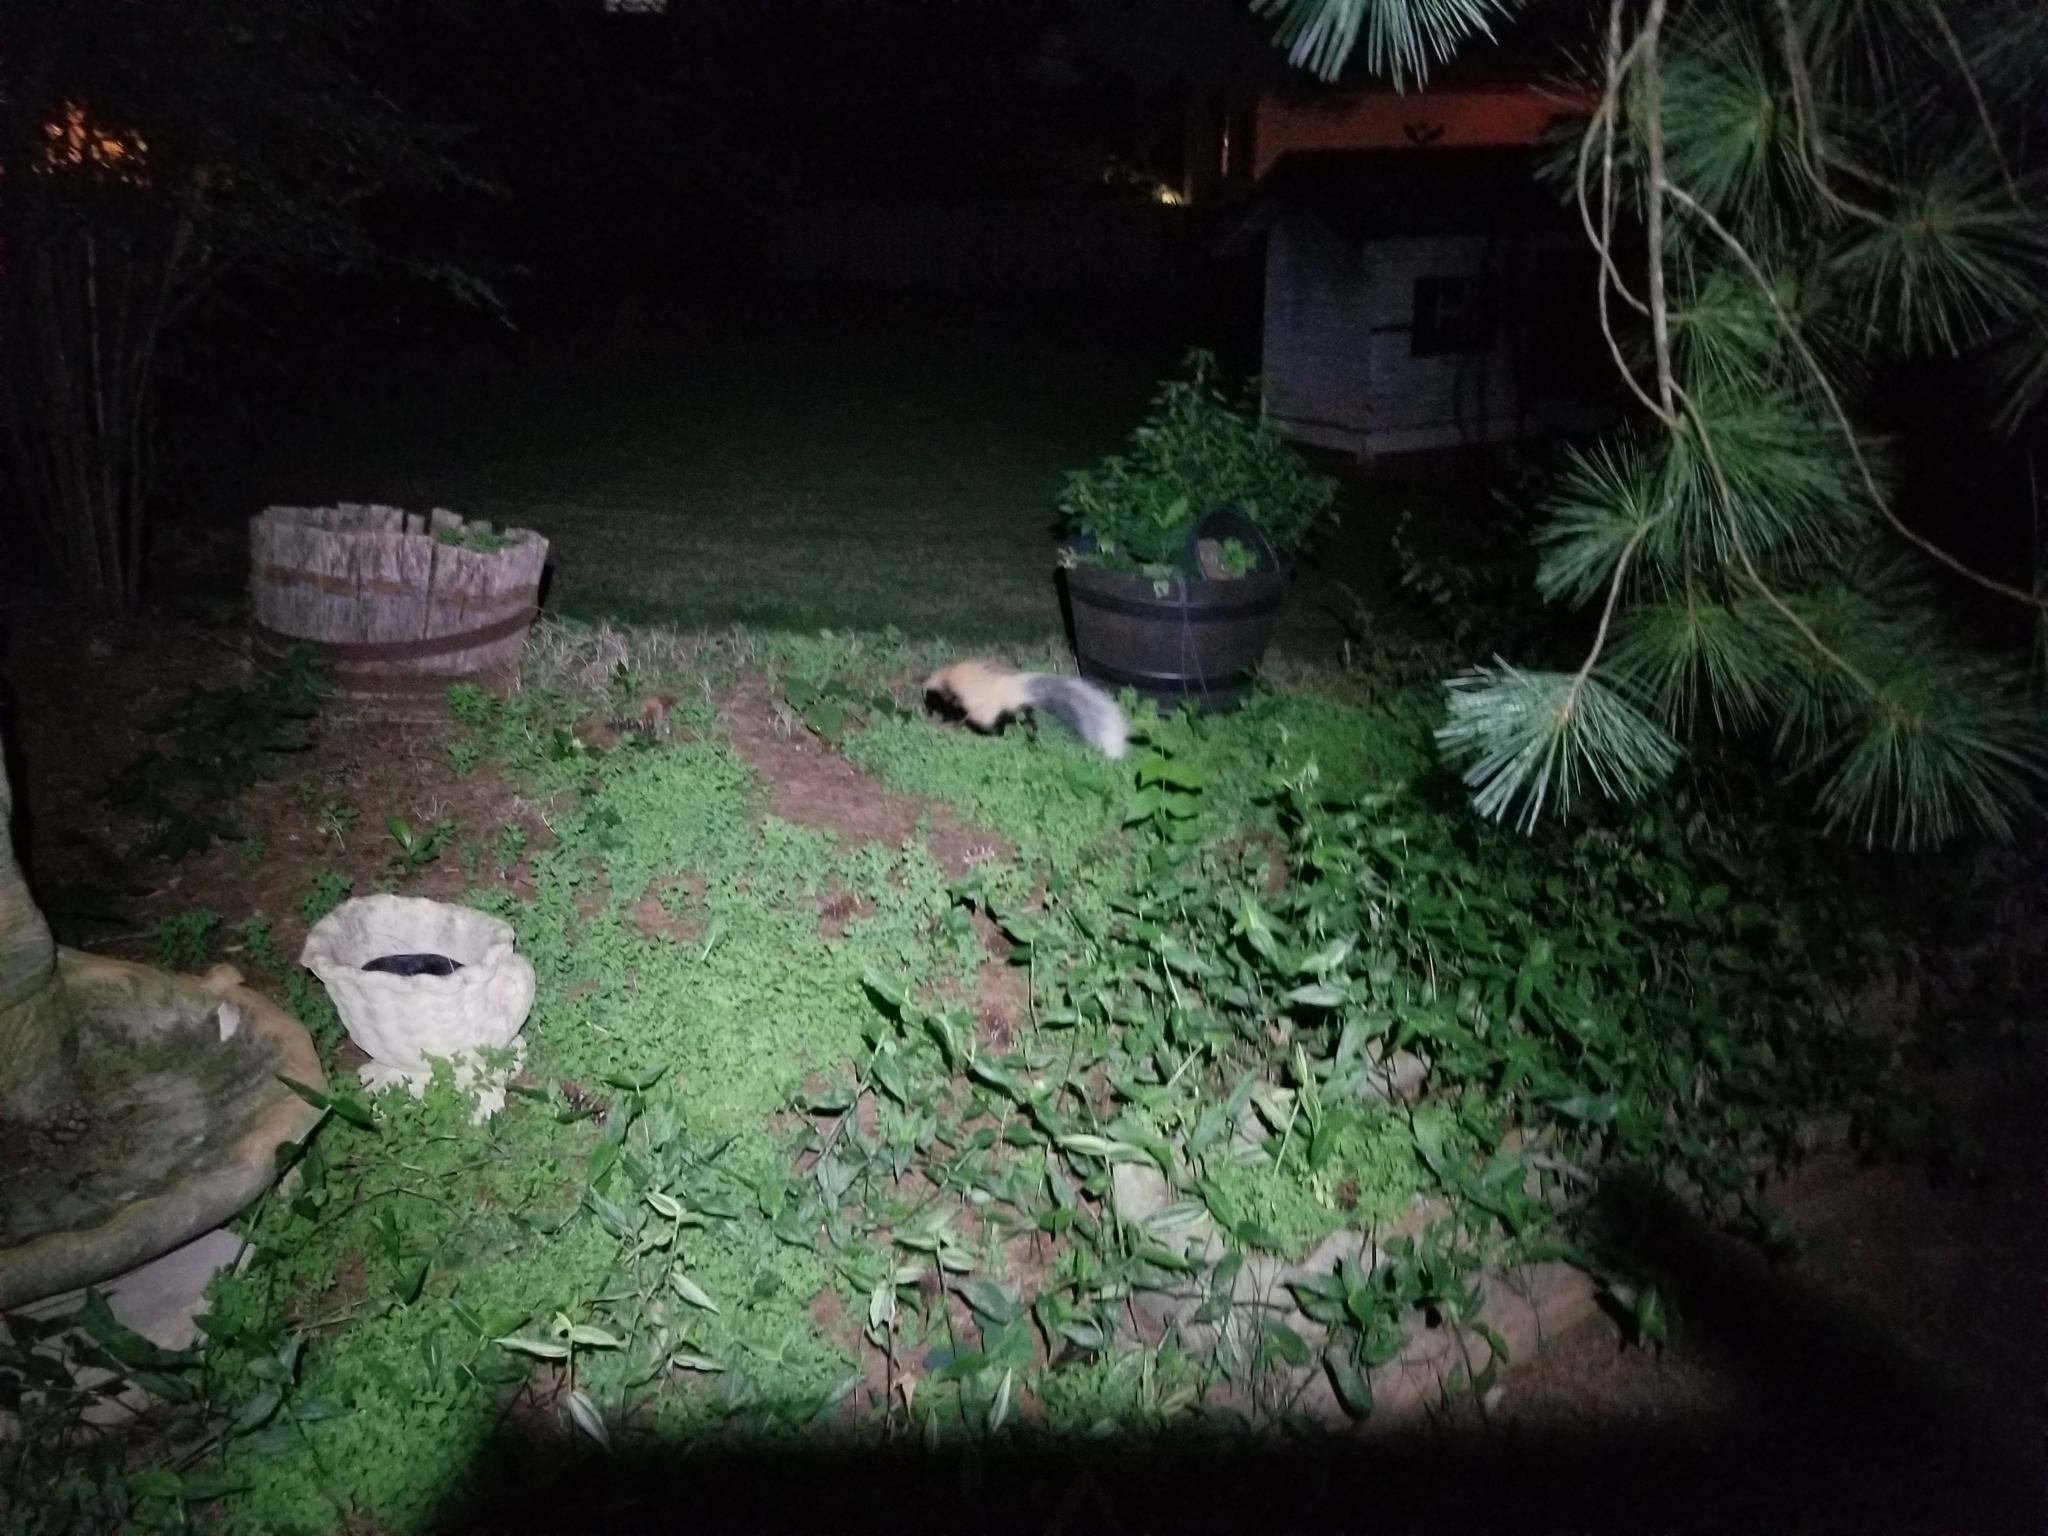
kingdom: Animalia
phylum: Chordata
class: Mammalia
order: Carnivora
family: Mephitidae
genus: Mephitis
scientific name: Mephitis mephitis
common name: Striped skunk
